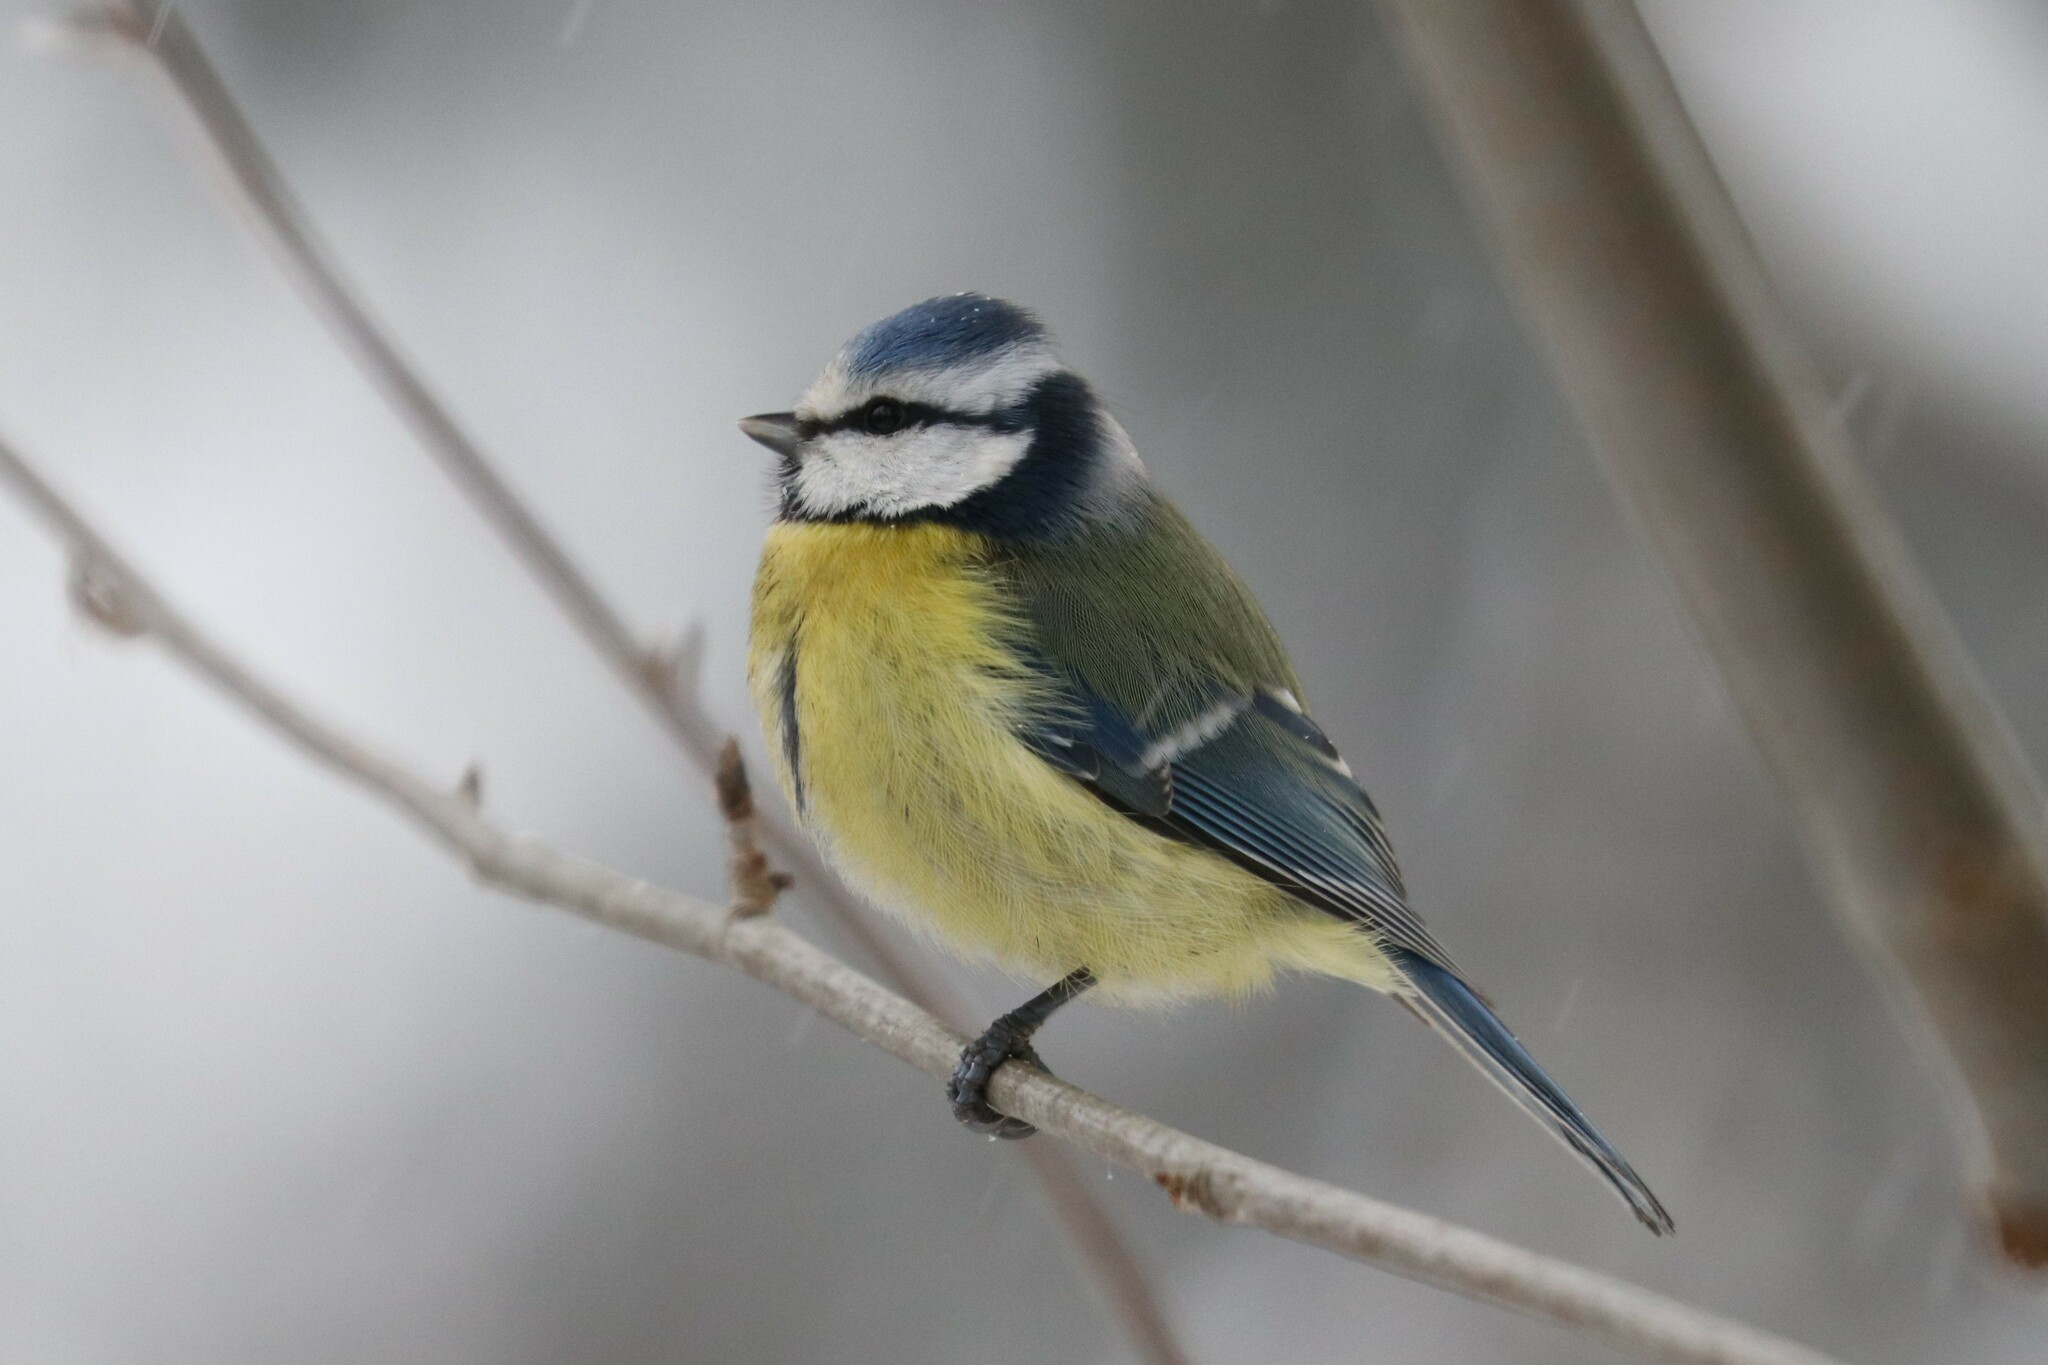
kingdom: Animalia
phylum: Chordata
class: Aves
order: Passeriformes
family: Paridae
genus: Cyanistes
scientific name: Cyanistes caeruleus
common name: Eurasian blue tit
